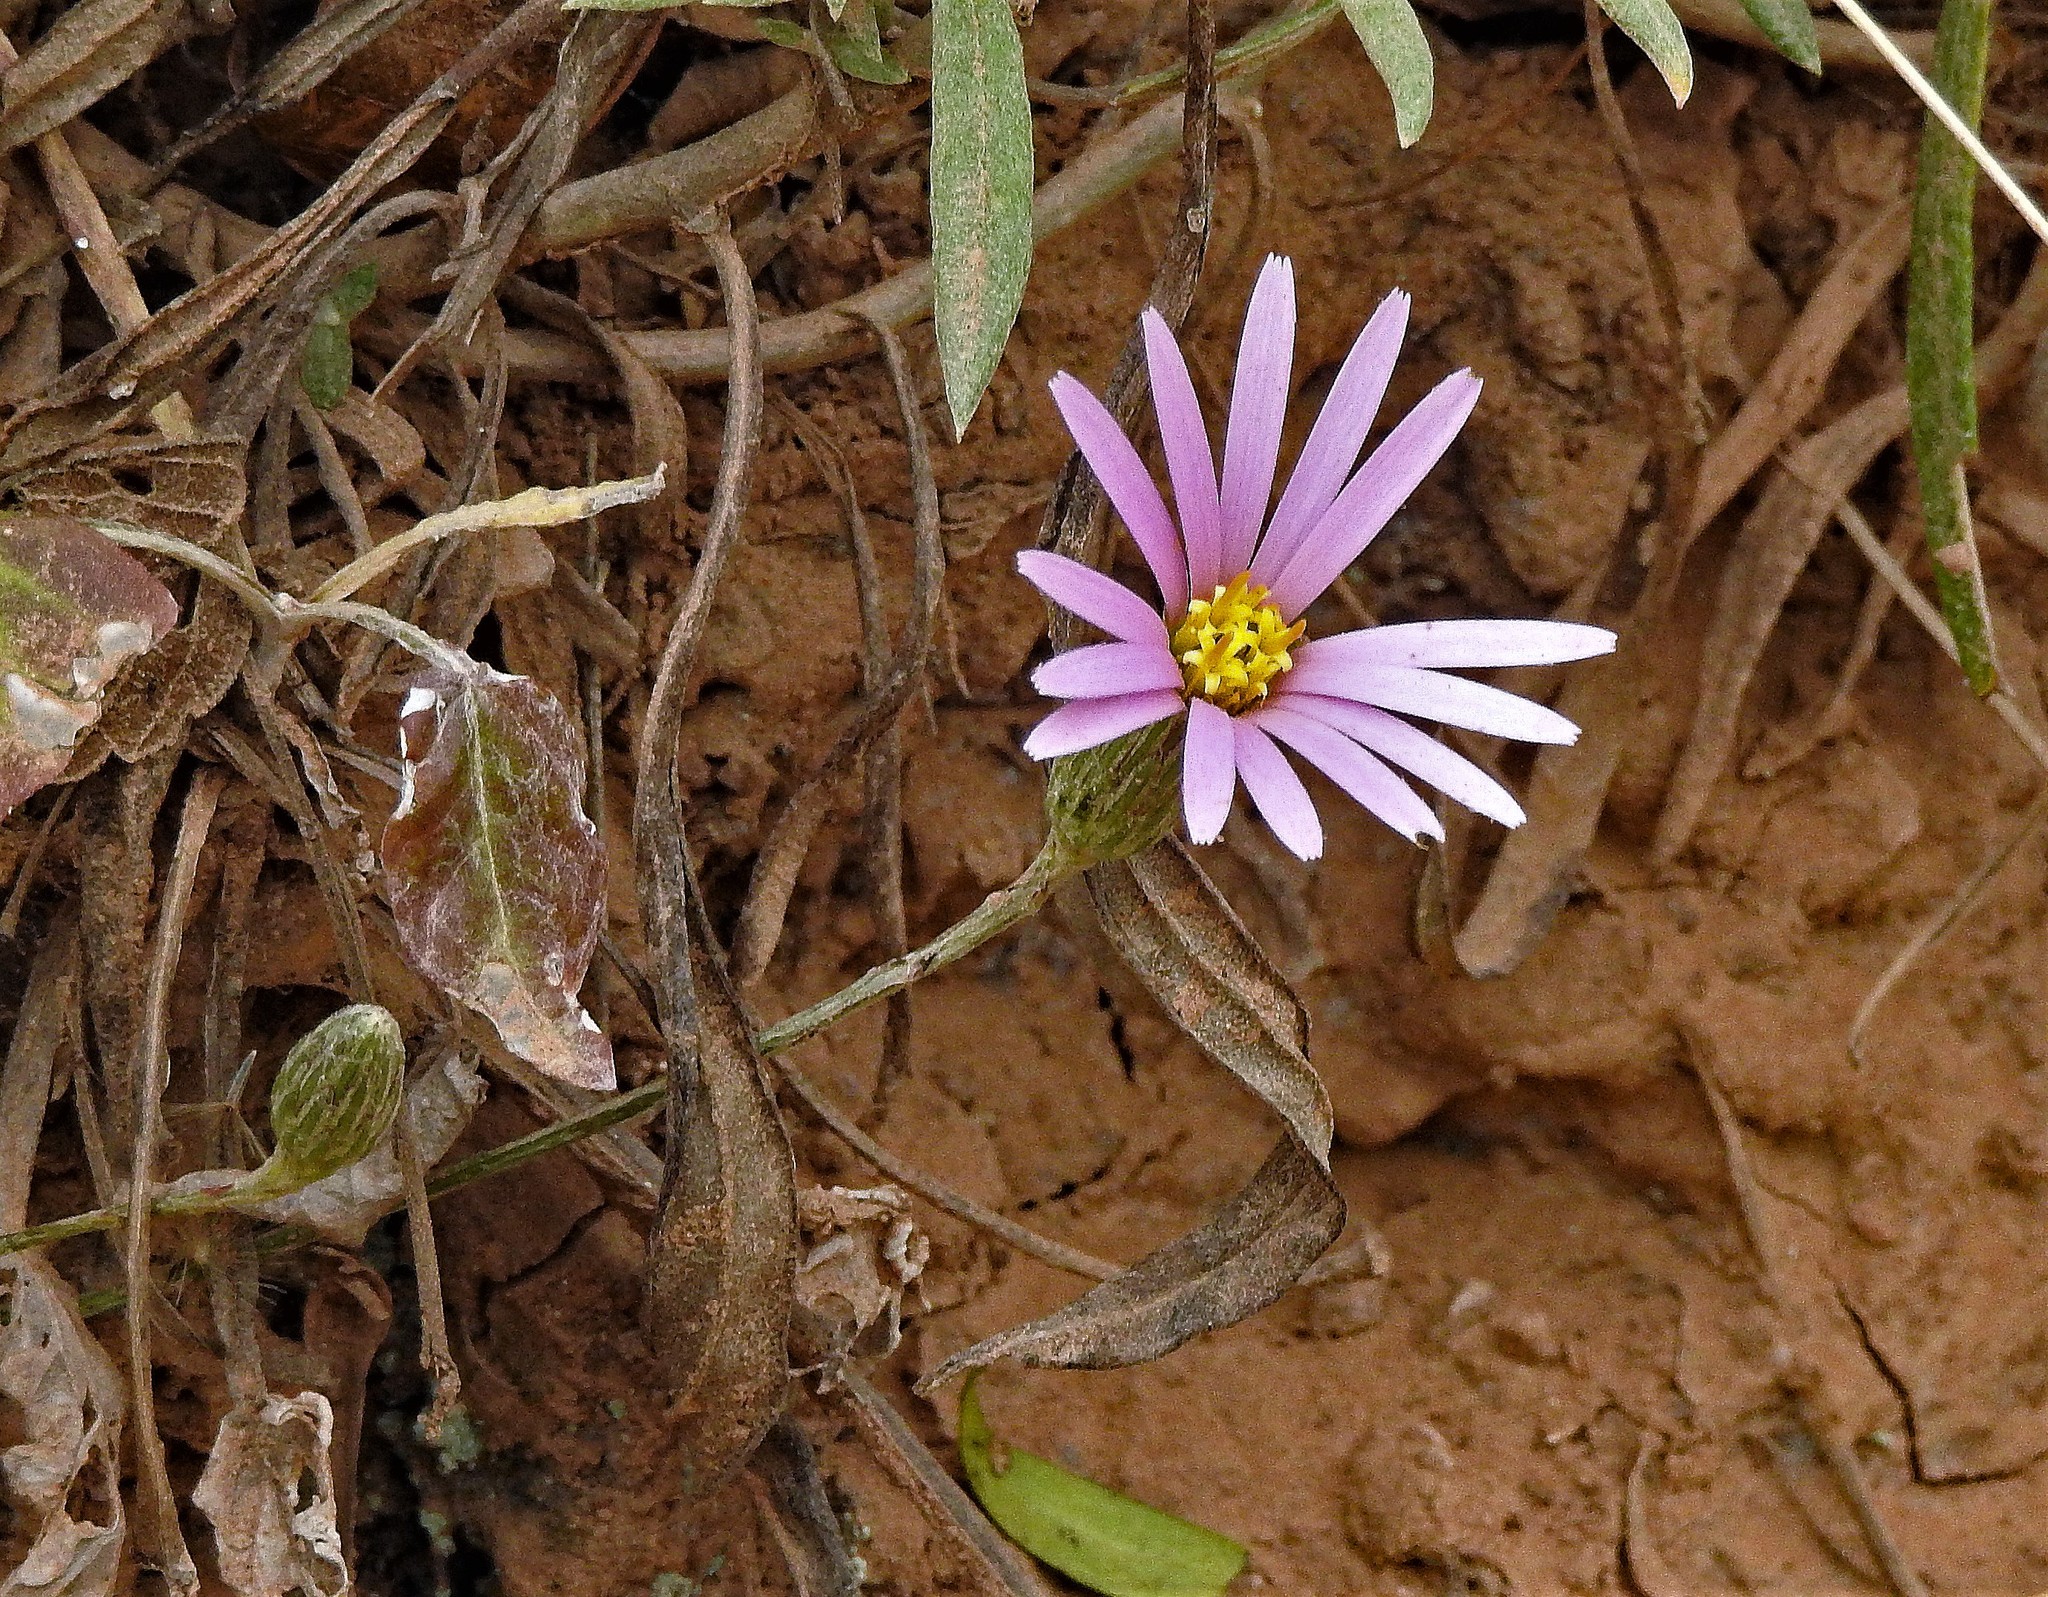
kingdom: Plantae
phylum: Tracheophyta
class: Magnoliopsida
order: Asterales
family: Asteraceae
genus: Onoseris
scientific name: Onoseris alata
